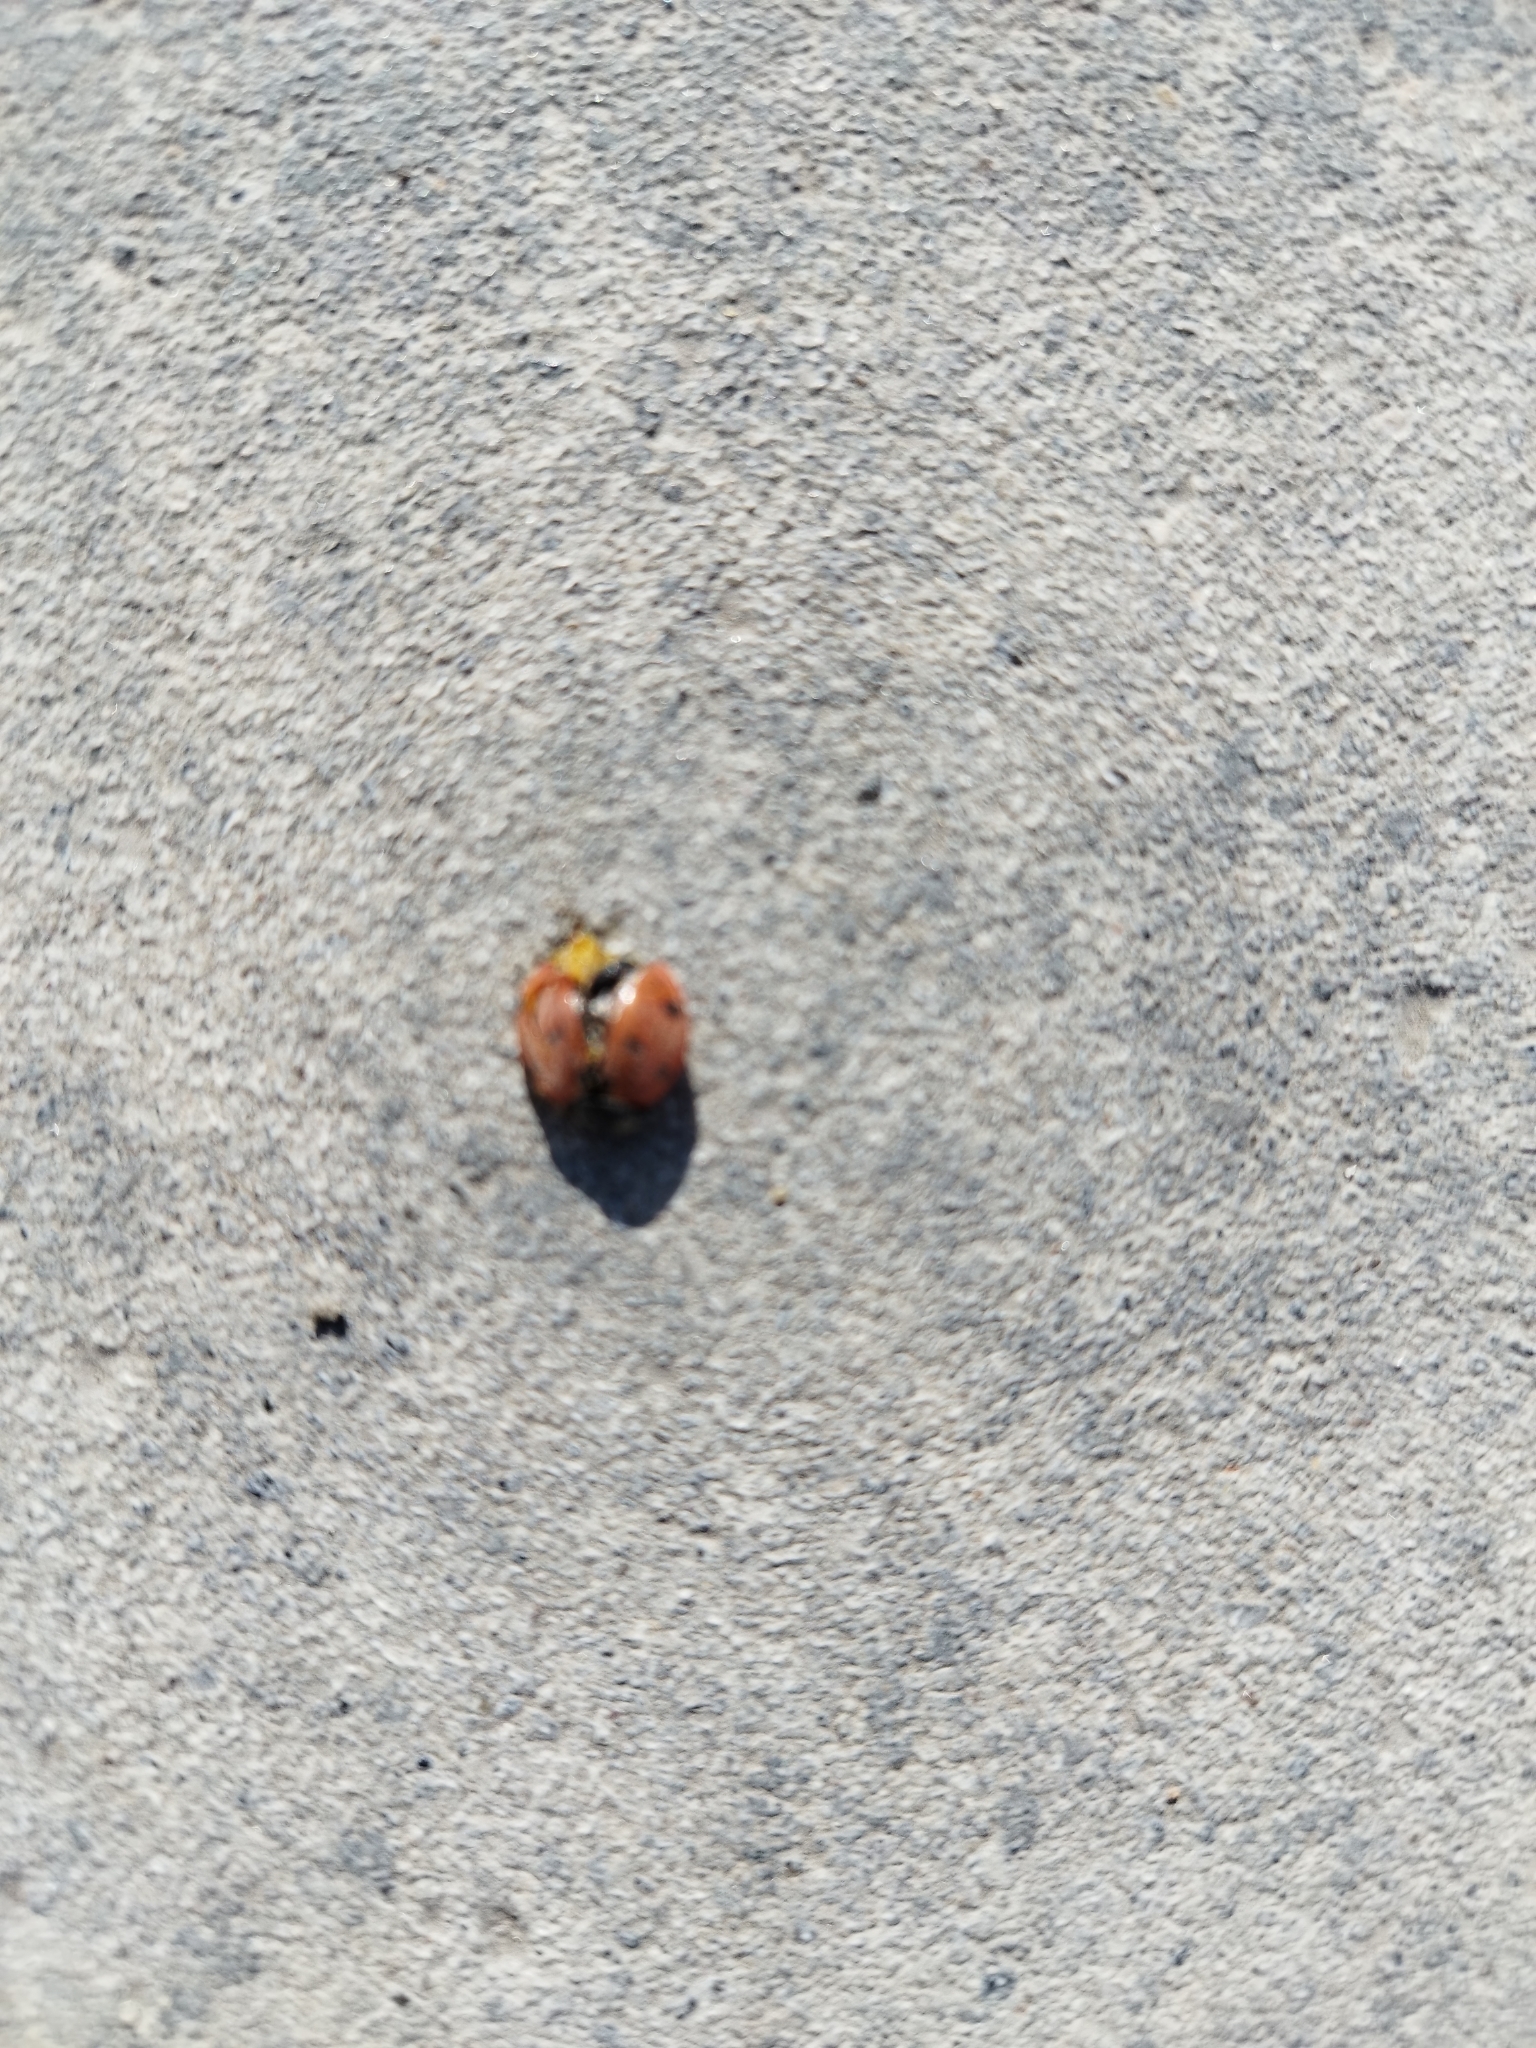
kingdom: Animalia
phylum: Arthropoda
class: Insecta
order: Coleoptera
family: Coccinellidae
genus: Coccinella
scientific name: Coccinella septempunctata
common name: Sevenspotted lady beetle
